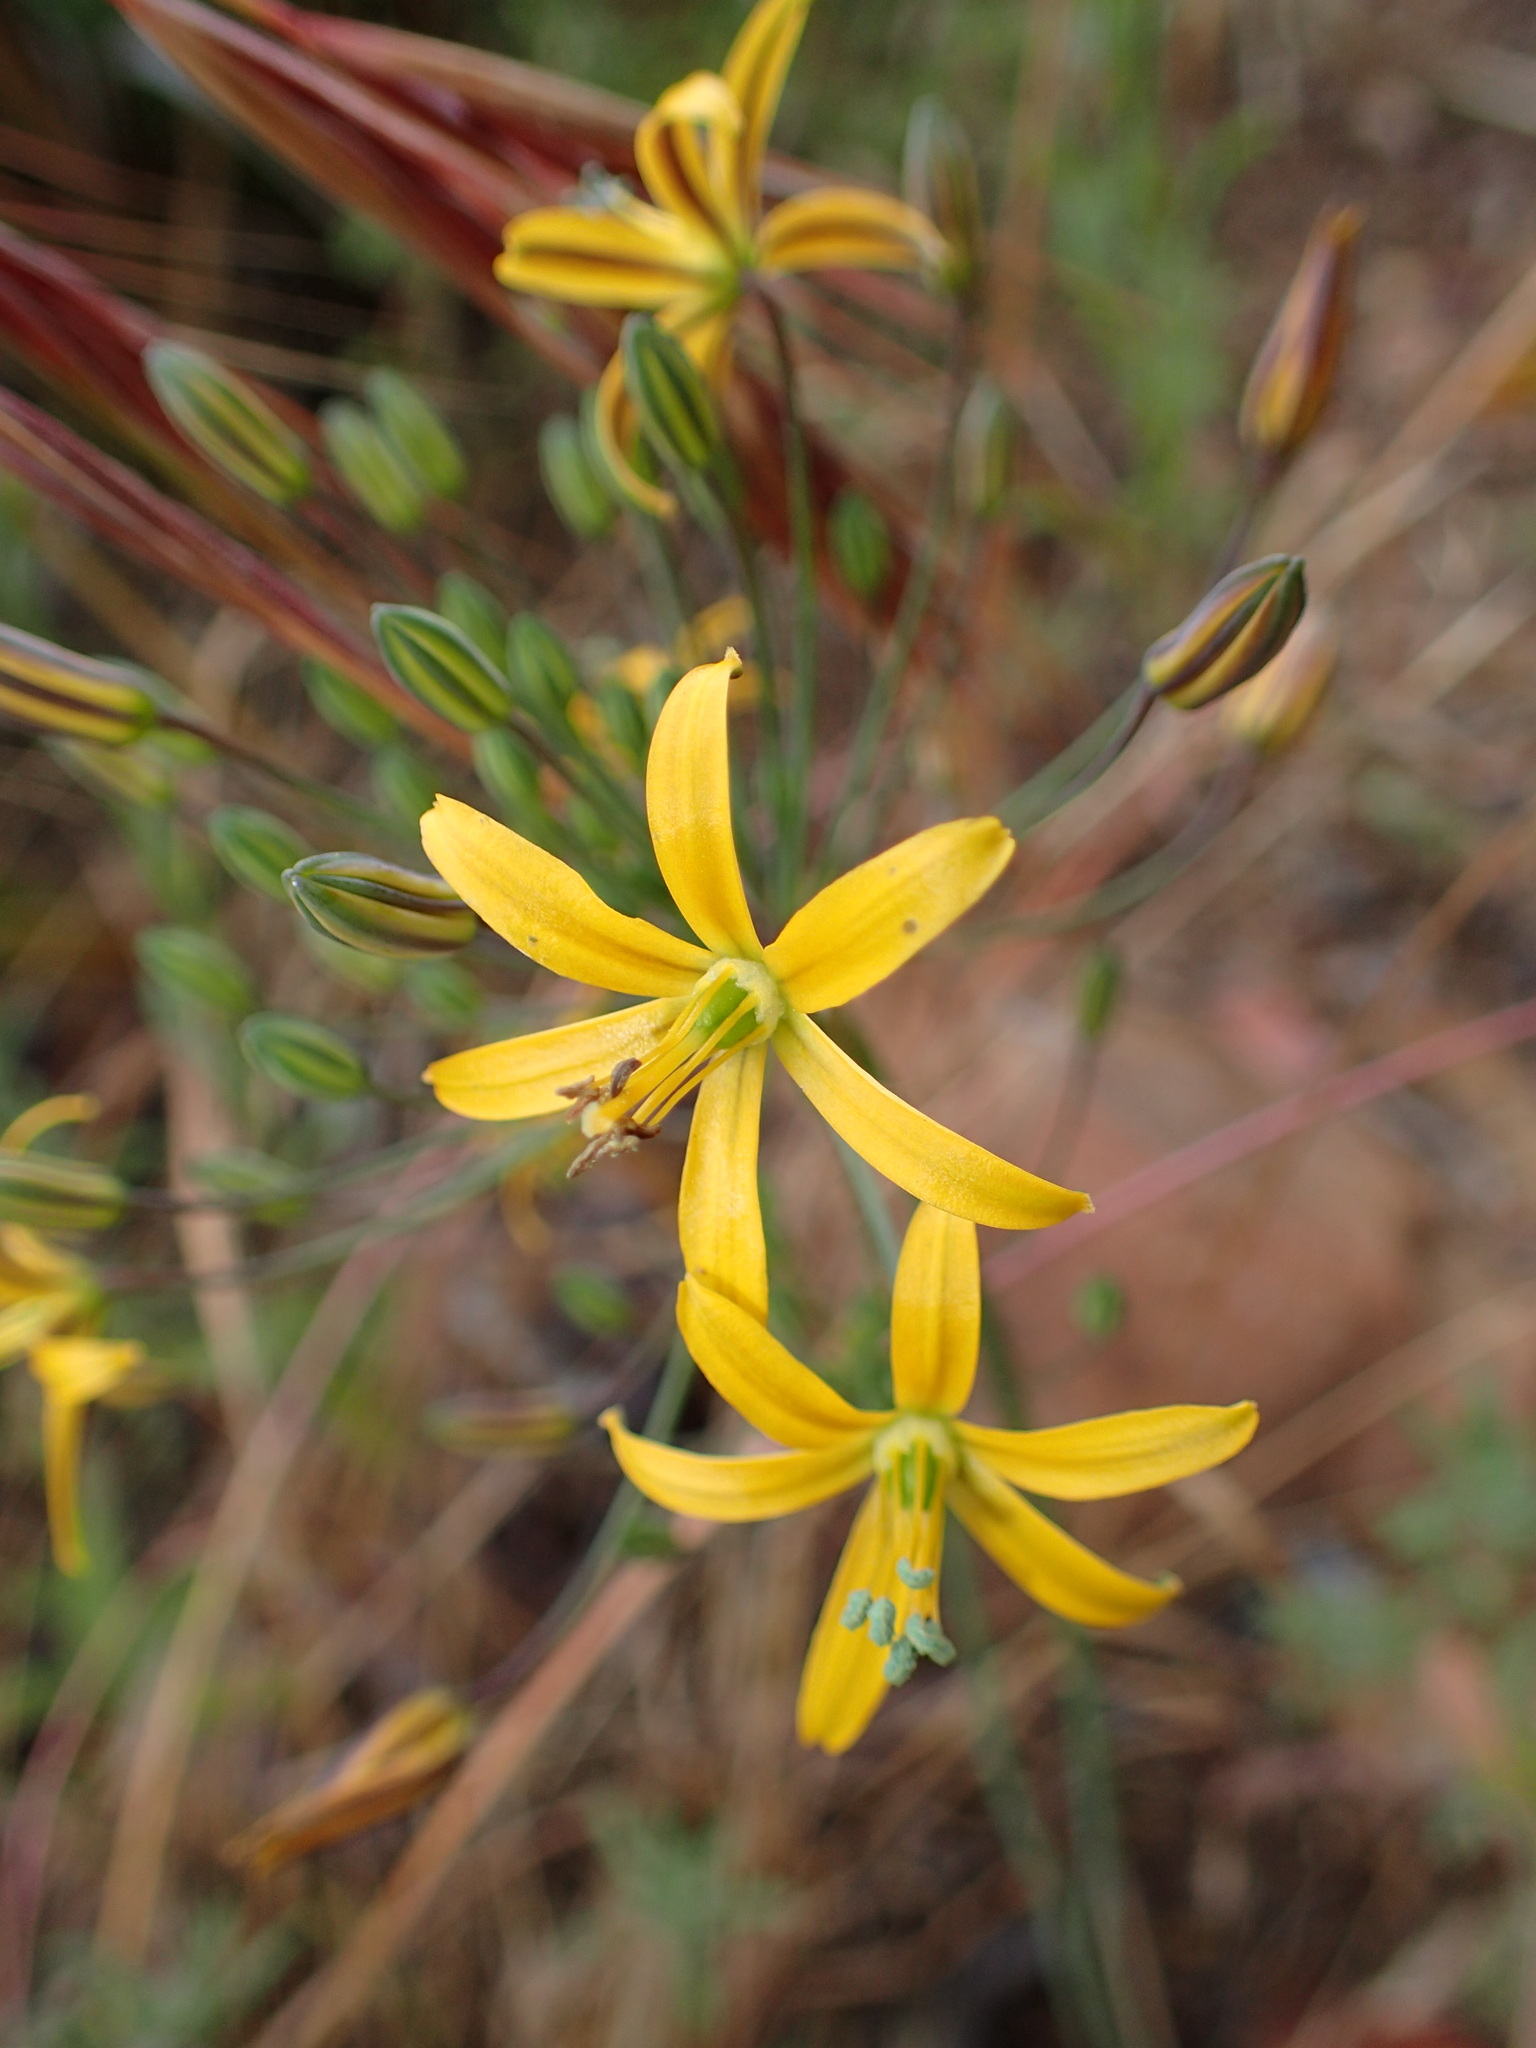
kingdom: Plantae
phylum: Tracheophyta
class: Liliopsida
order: Asparagales
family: Asparagaceae
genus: Bloomeria
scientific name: Bloomeria crocea
